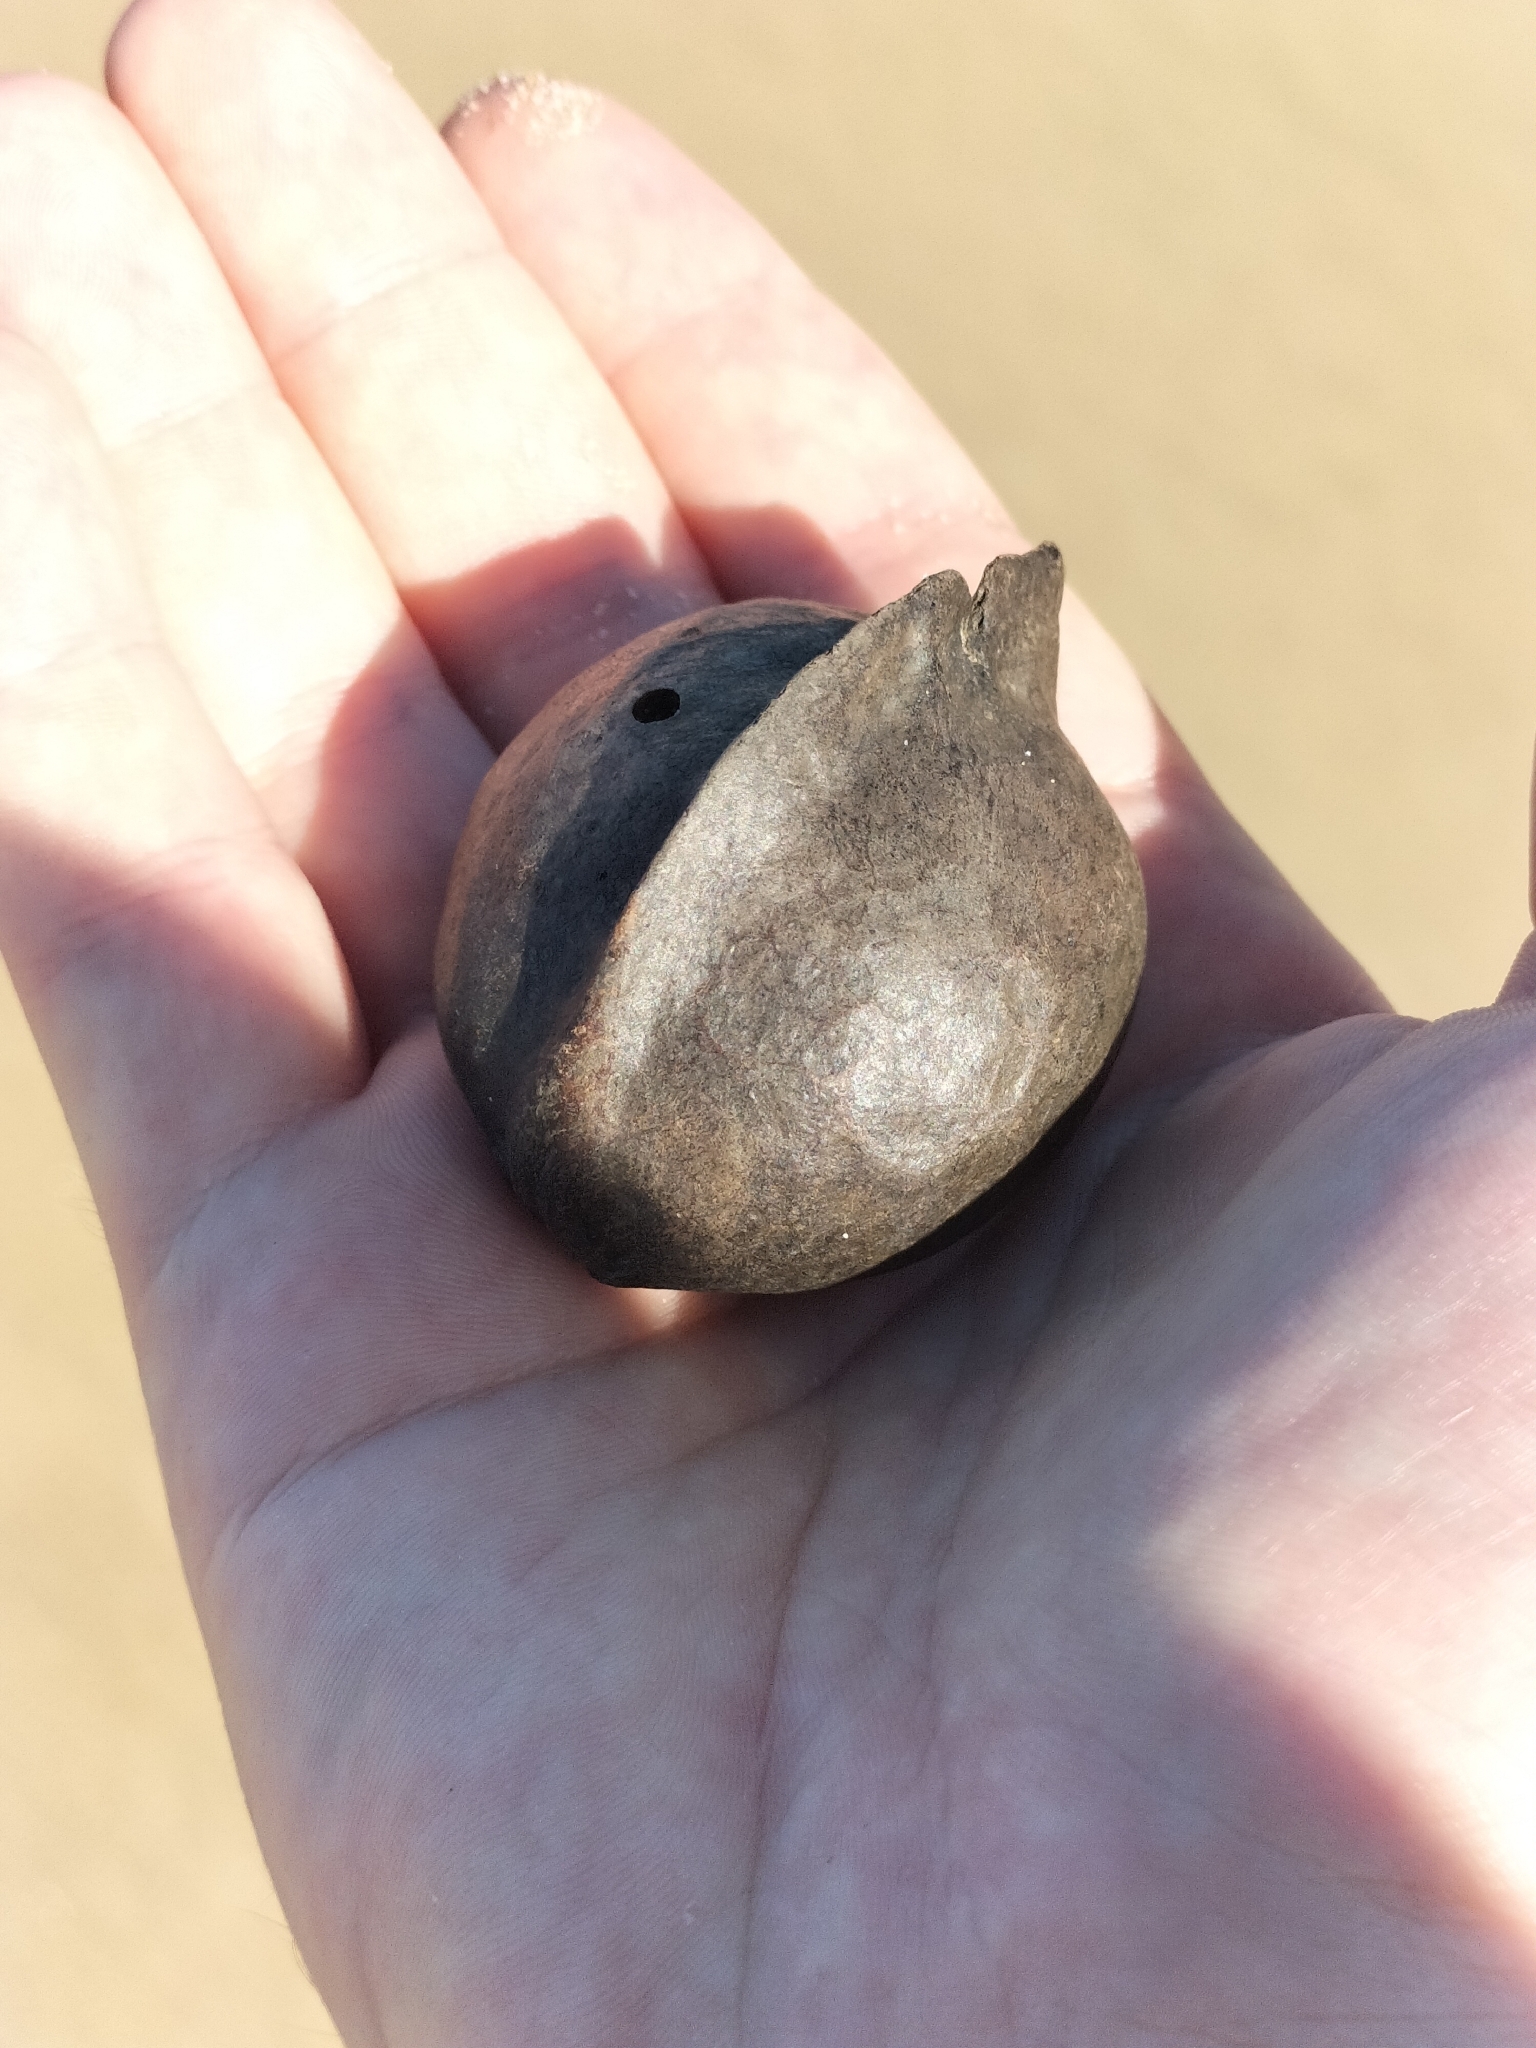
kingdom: Plantae
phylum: Tracheophyta
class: Magnoliopsida
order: Malvales
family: Malvaceae
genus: Heritiera
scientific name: Heritiera littoralis
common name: Looking-glass mangrove
